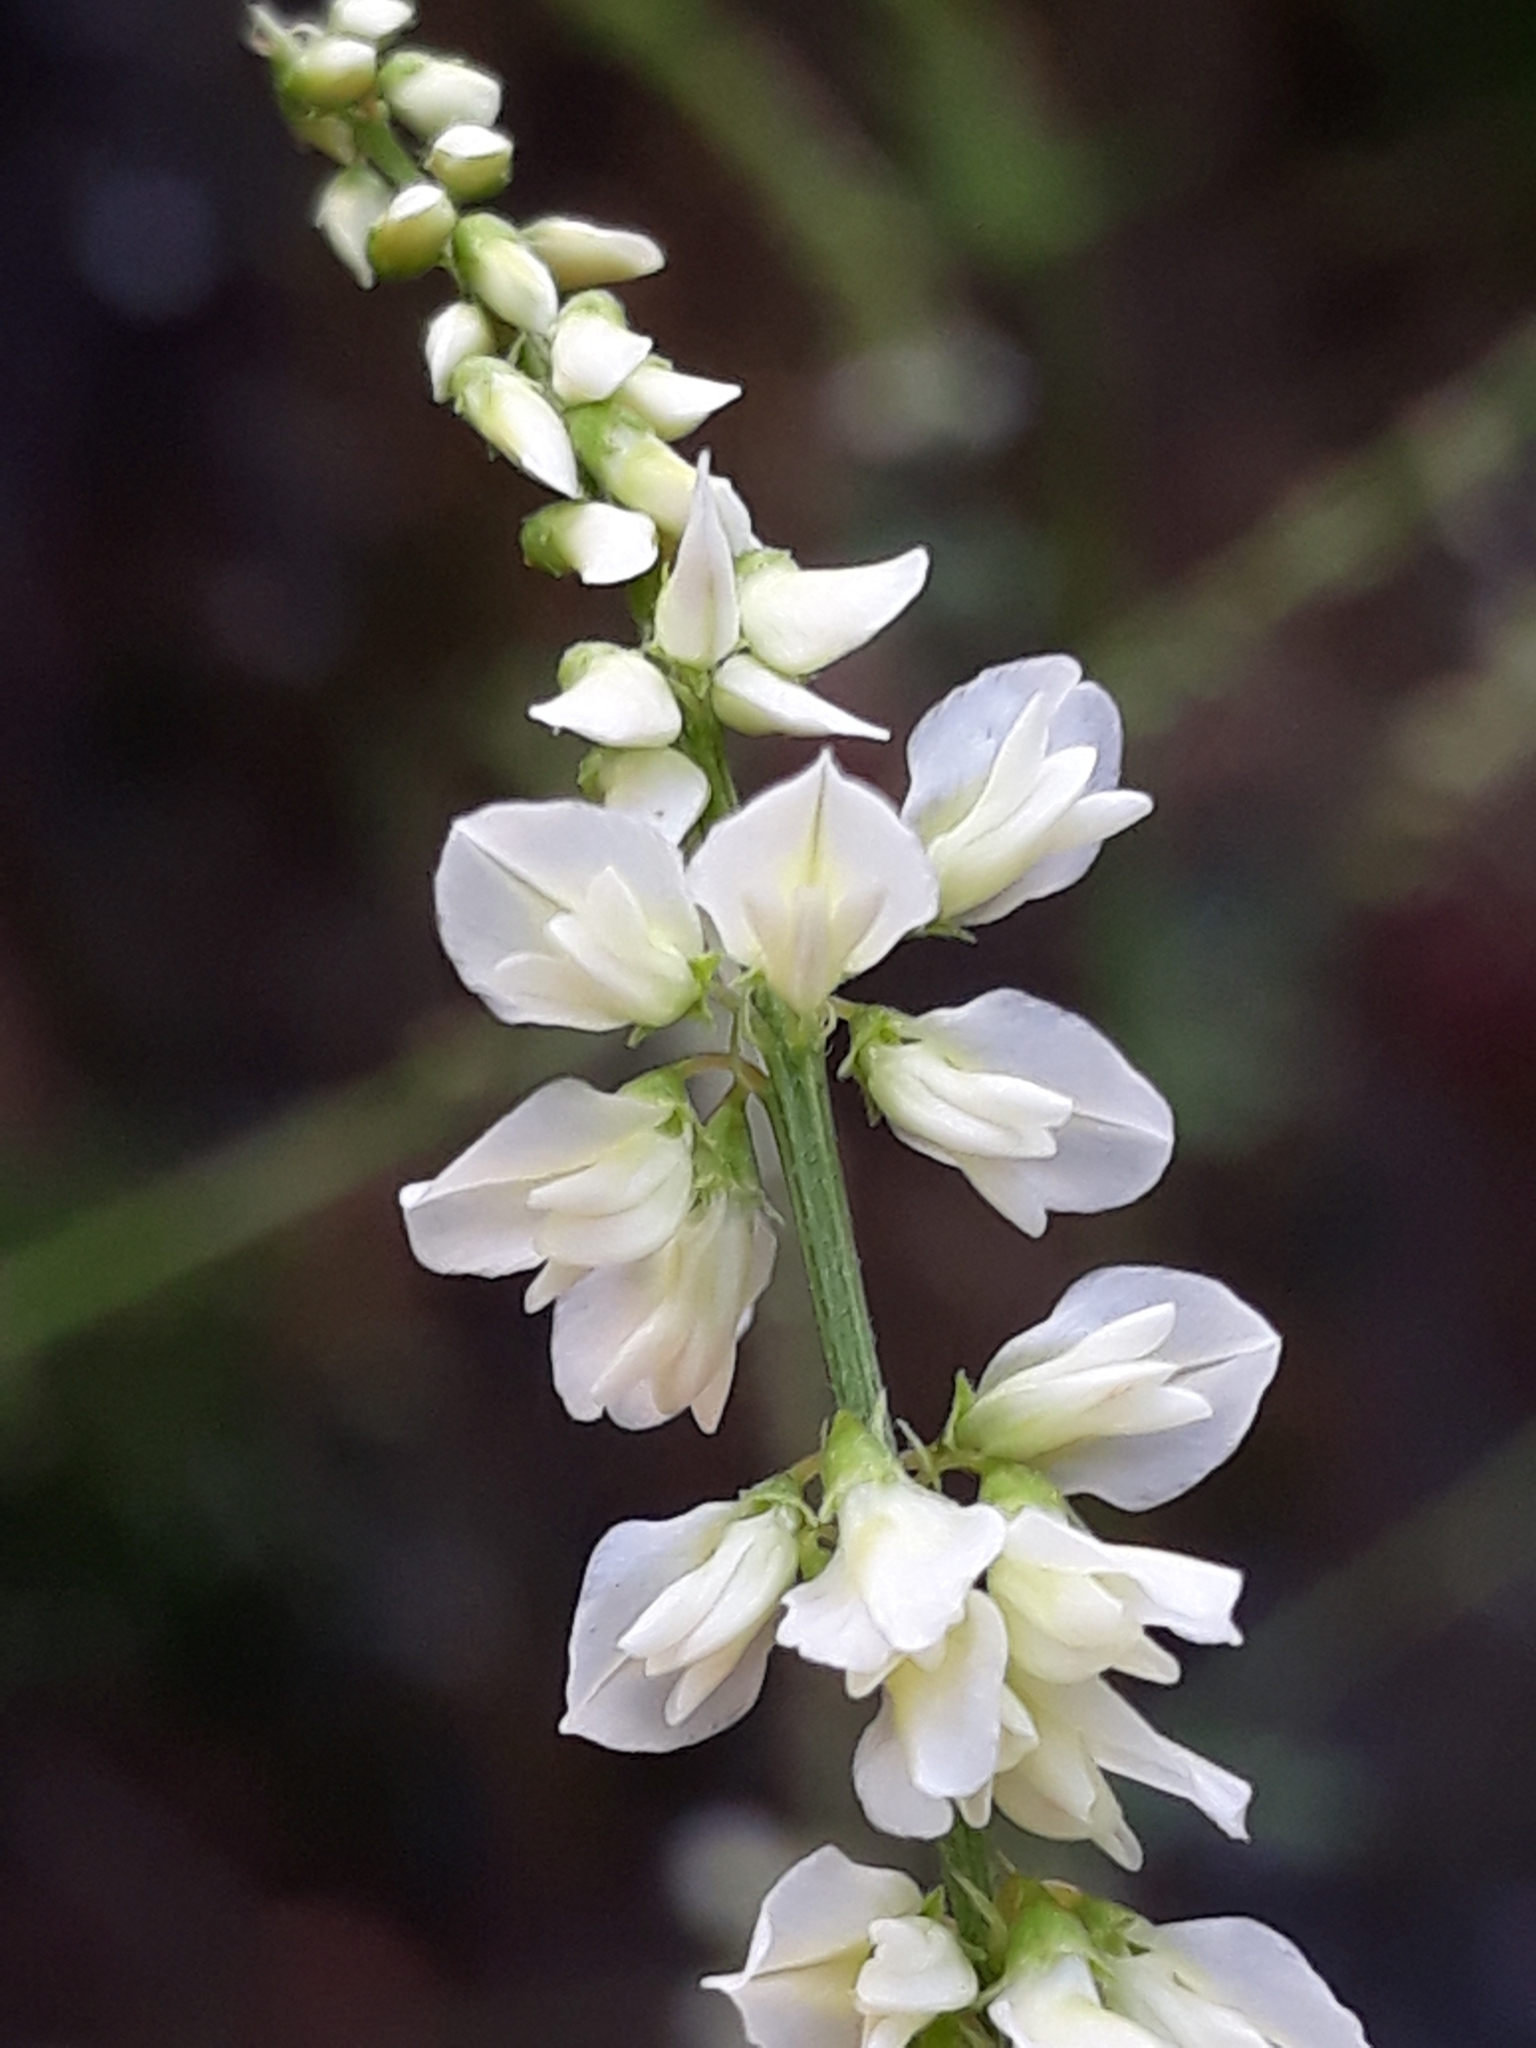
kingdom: Plantae
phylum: Tracheophyta
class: Magnoliopsida
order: Fabales
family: Fabaceae
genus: Melilotus
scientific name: Melilotus albus
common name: White melilot
